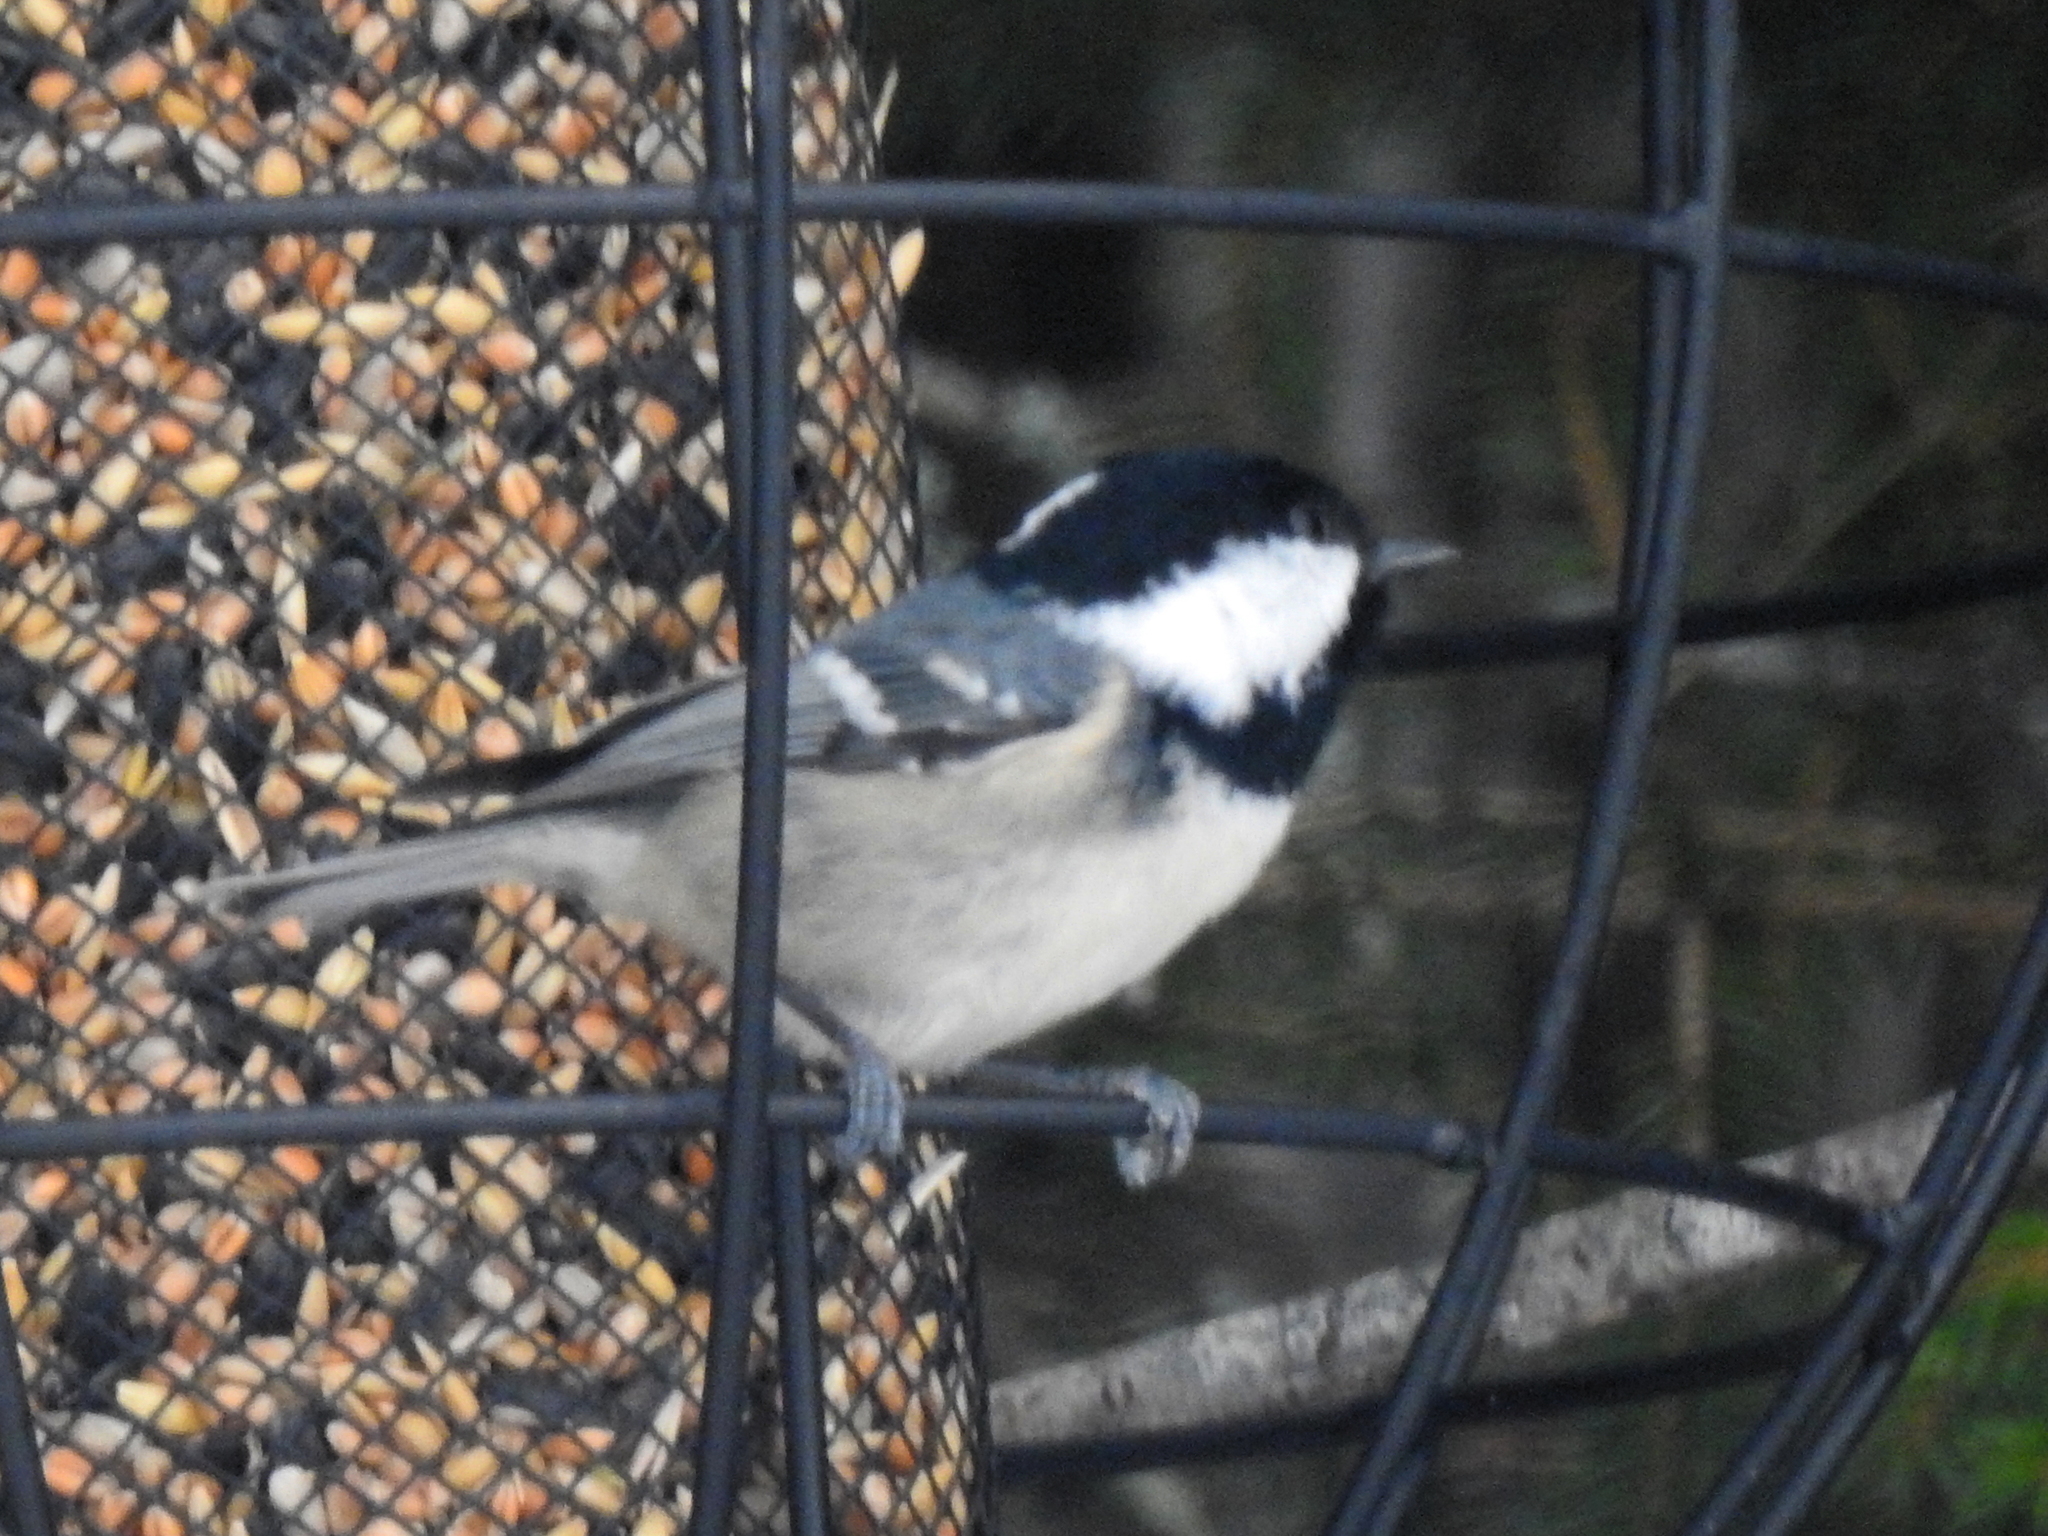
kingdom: Animalia
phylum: Chordata
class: Aves
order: Passeriformes
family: Paridae
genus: Periparus
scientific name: Periparus ater
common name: Coal tit
